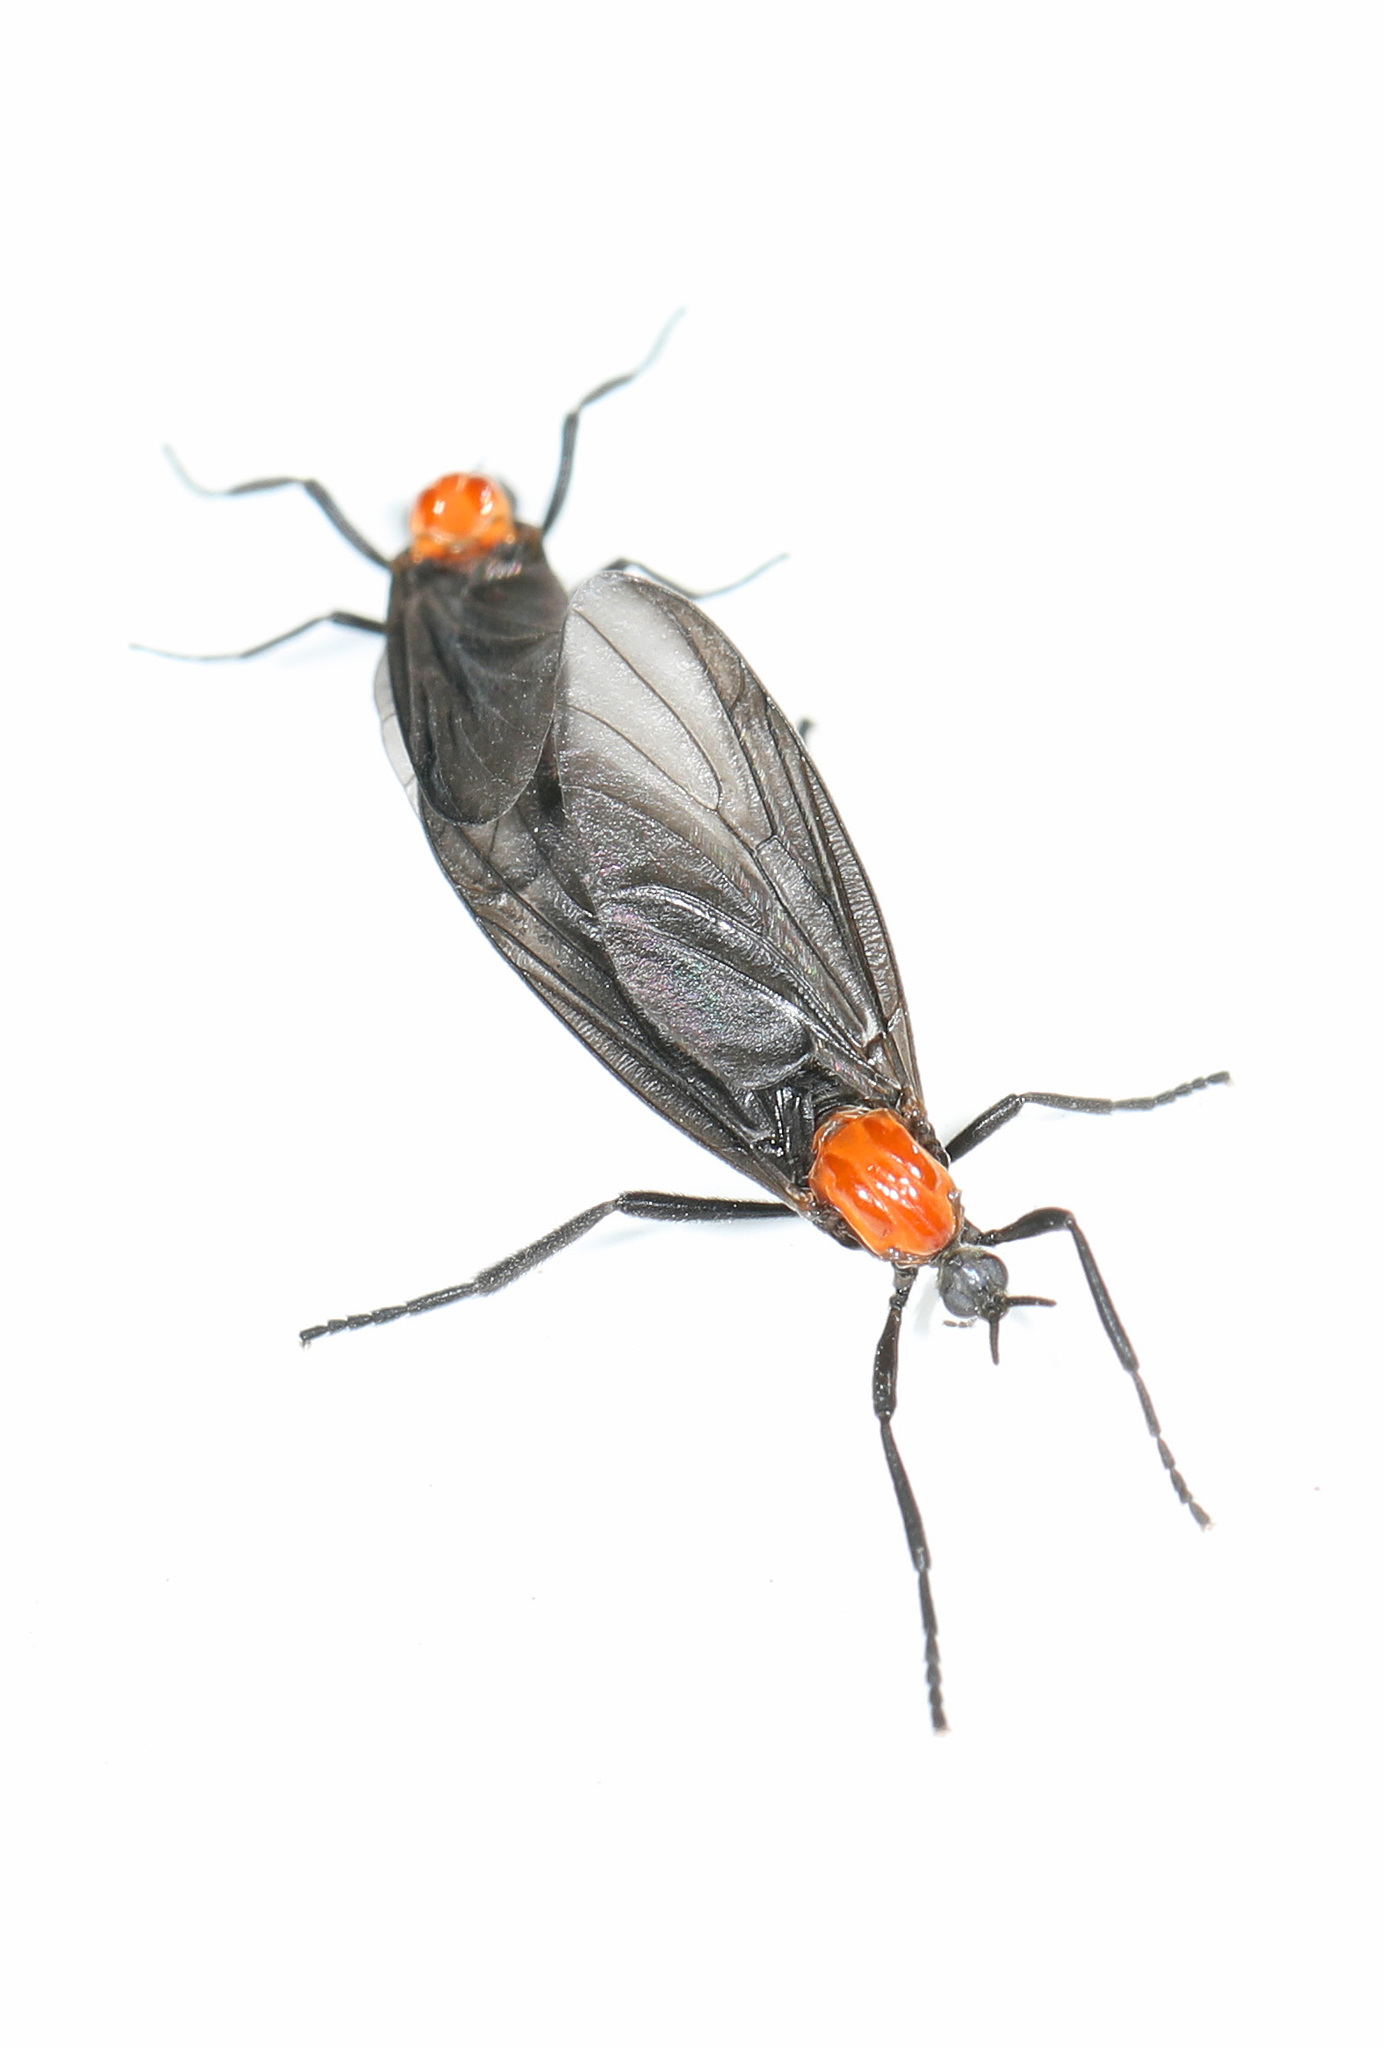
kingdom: Animalia
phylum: Arthropoda
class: Insecta
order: Diptera
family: Bibionidae
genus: Plecia
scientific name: Plecia nearctica
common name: March fly
